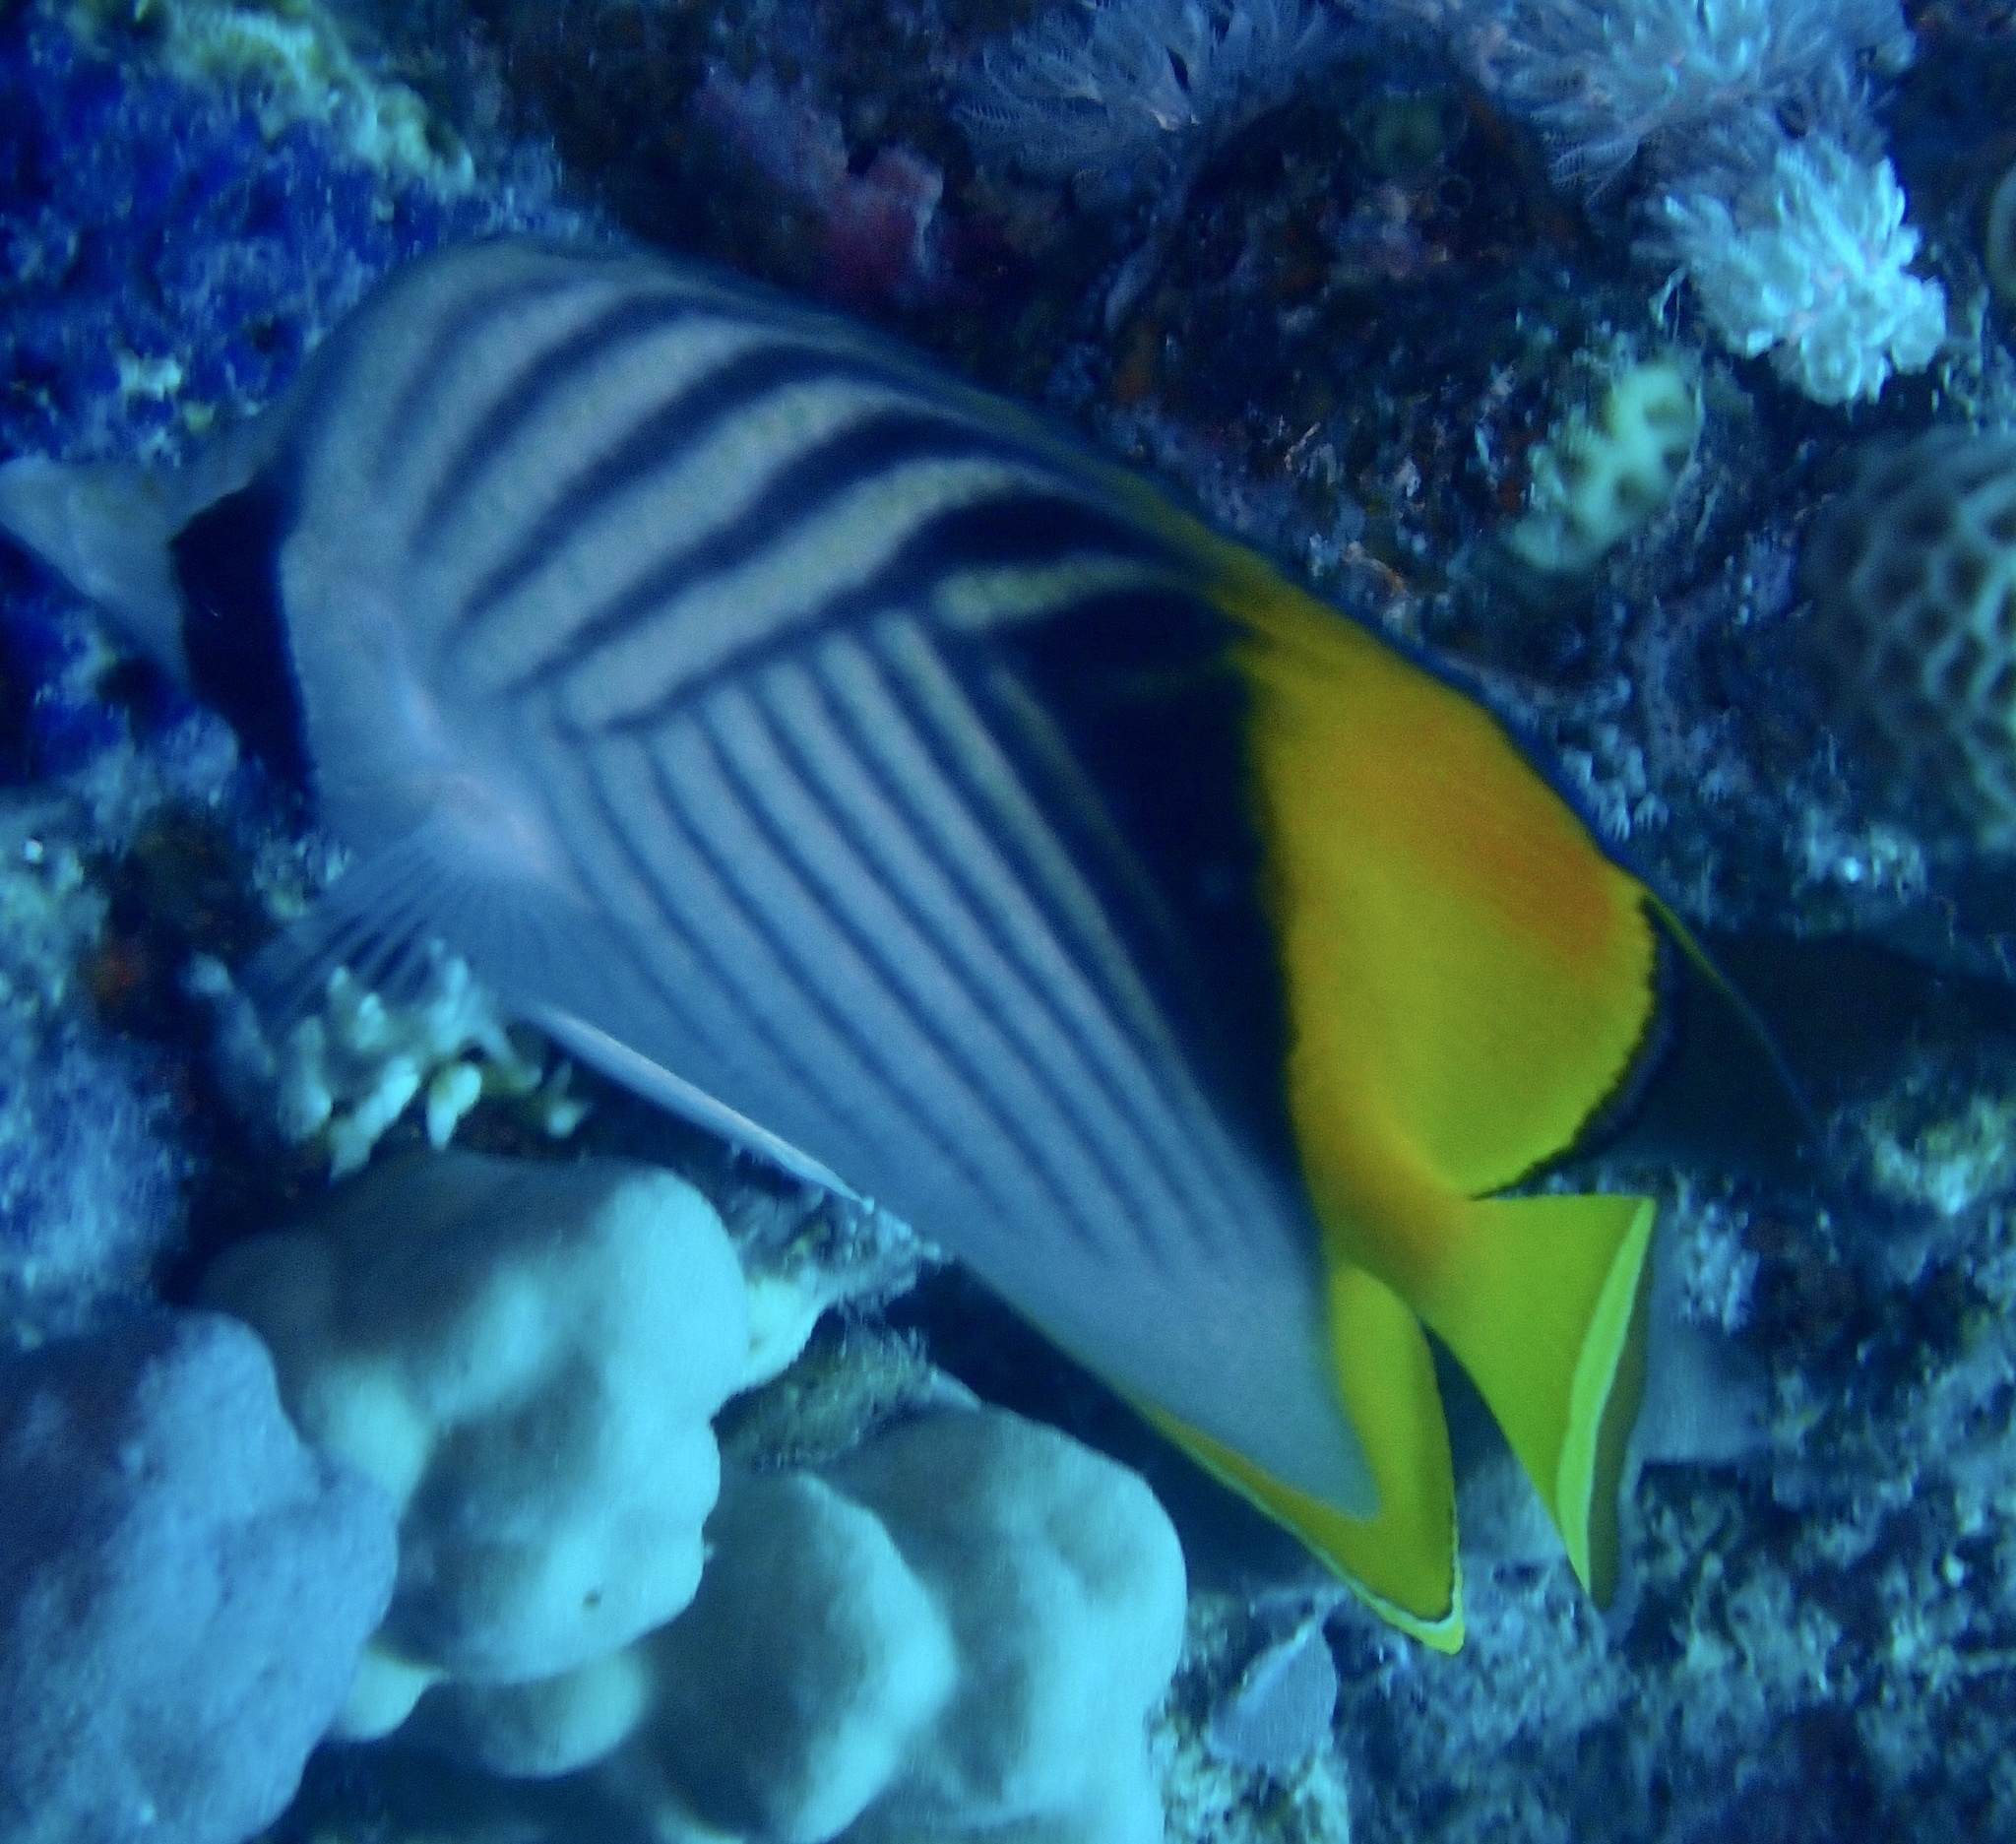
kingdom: Animalia
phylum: Chordata
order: Perciformes
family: Chaetodontidae
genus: Chaetodon
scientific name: Chaetodon auriga
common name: Threadfin butterflyfish
